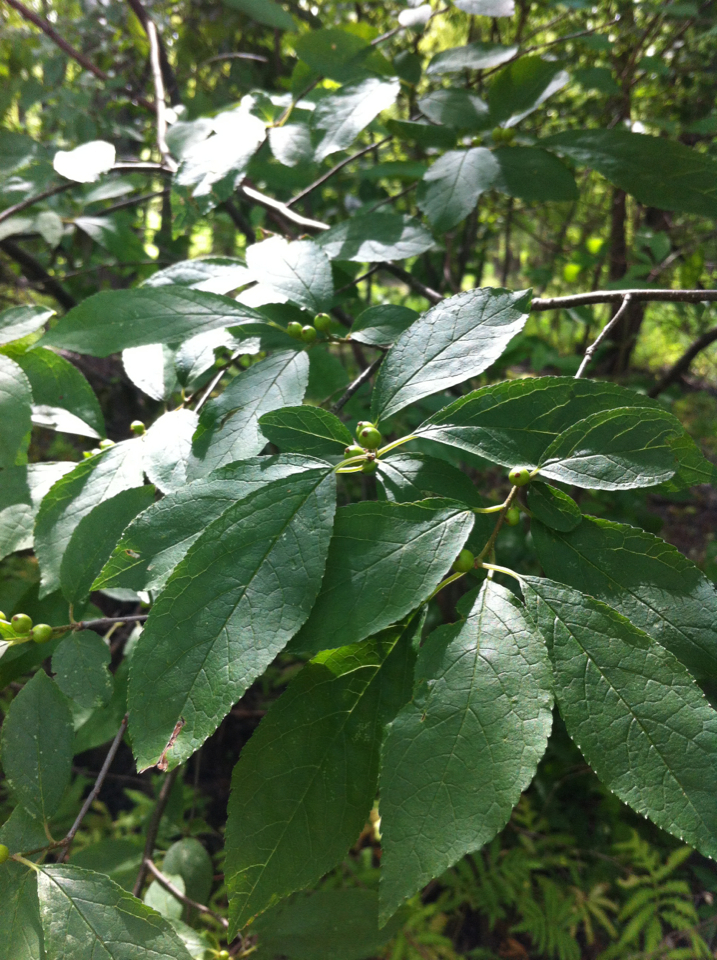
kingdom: Plantae
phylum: Tracheophyta
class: Magnoliopsida
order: Aquifoliales
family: Aquifoliaceae
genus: Ilex
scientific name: Ilex verticillata
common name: Virginia winterberry
